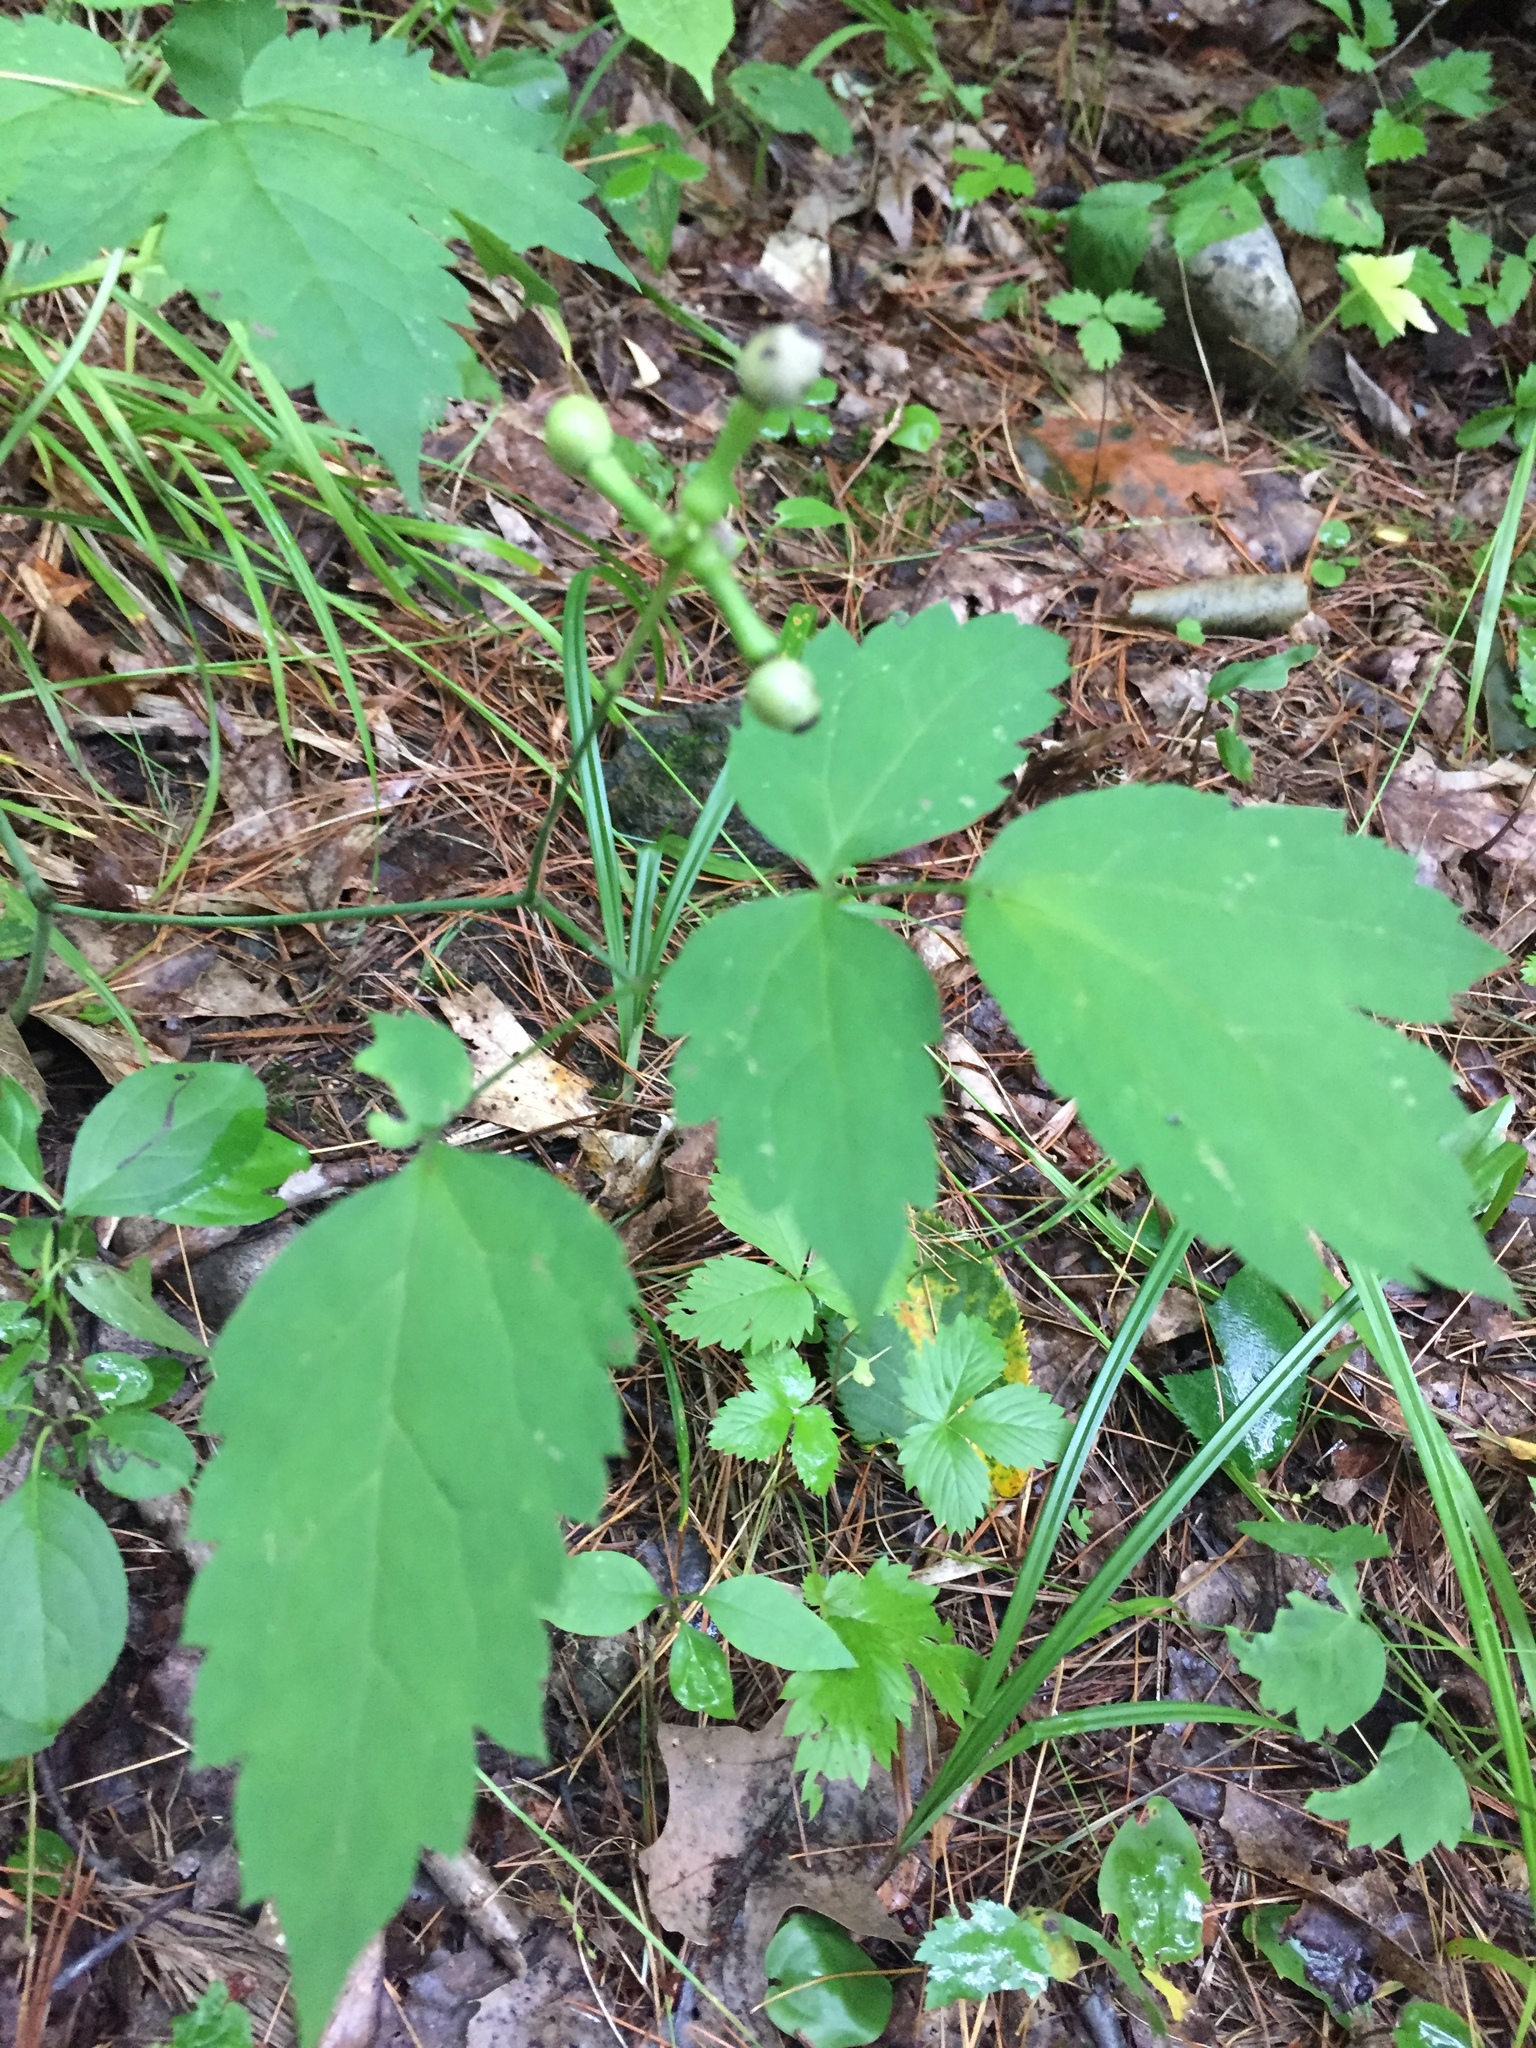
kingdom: Plantae
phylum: Tracheophyta
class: Magnoliopsida
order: Ranunculales
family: Ranunculaceae
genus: Actaea
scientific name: Actaea pachypoda
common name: Doll's-eyes
